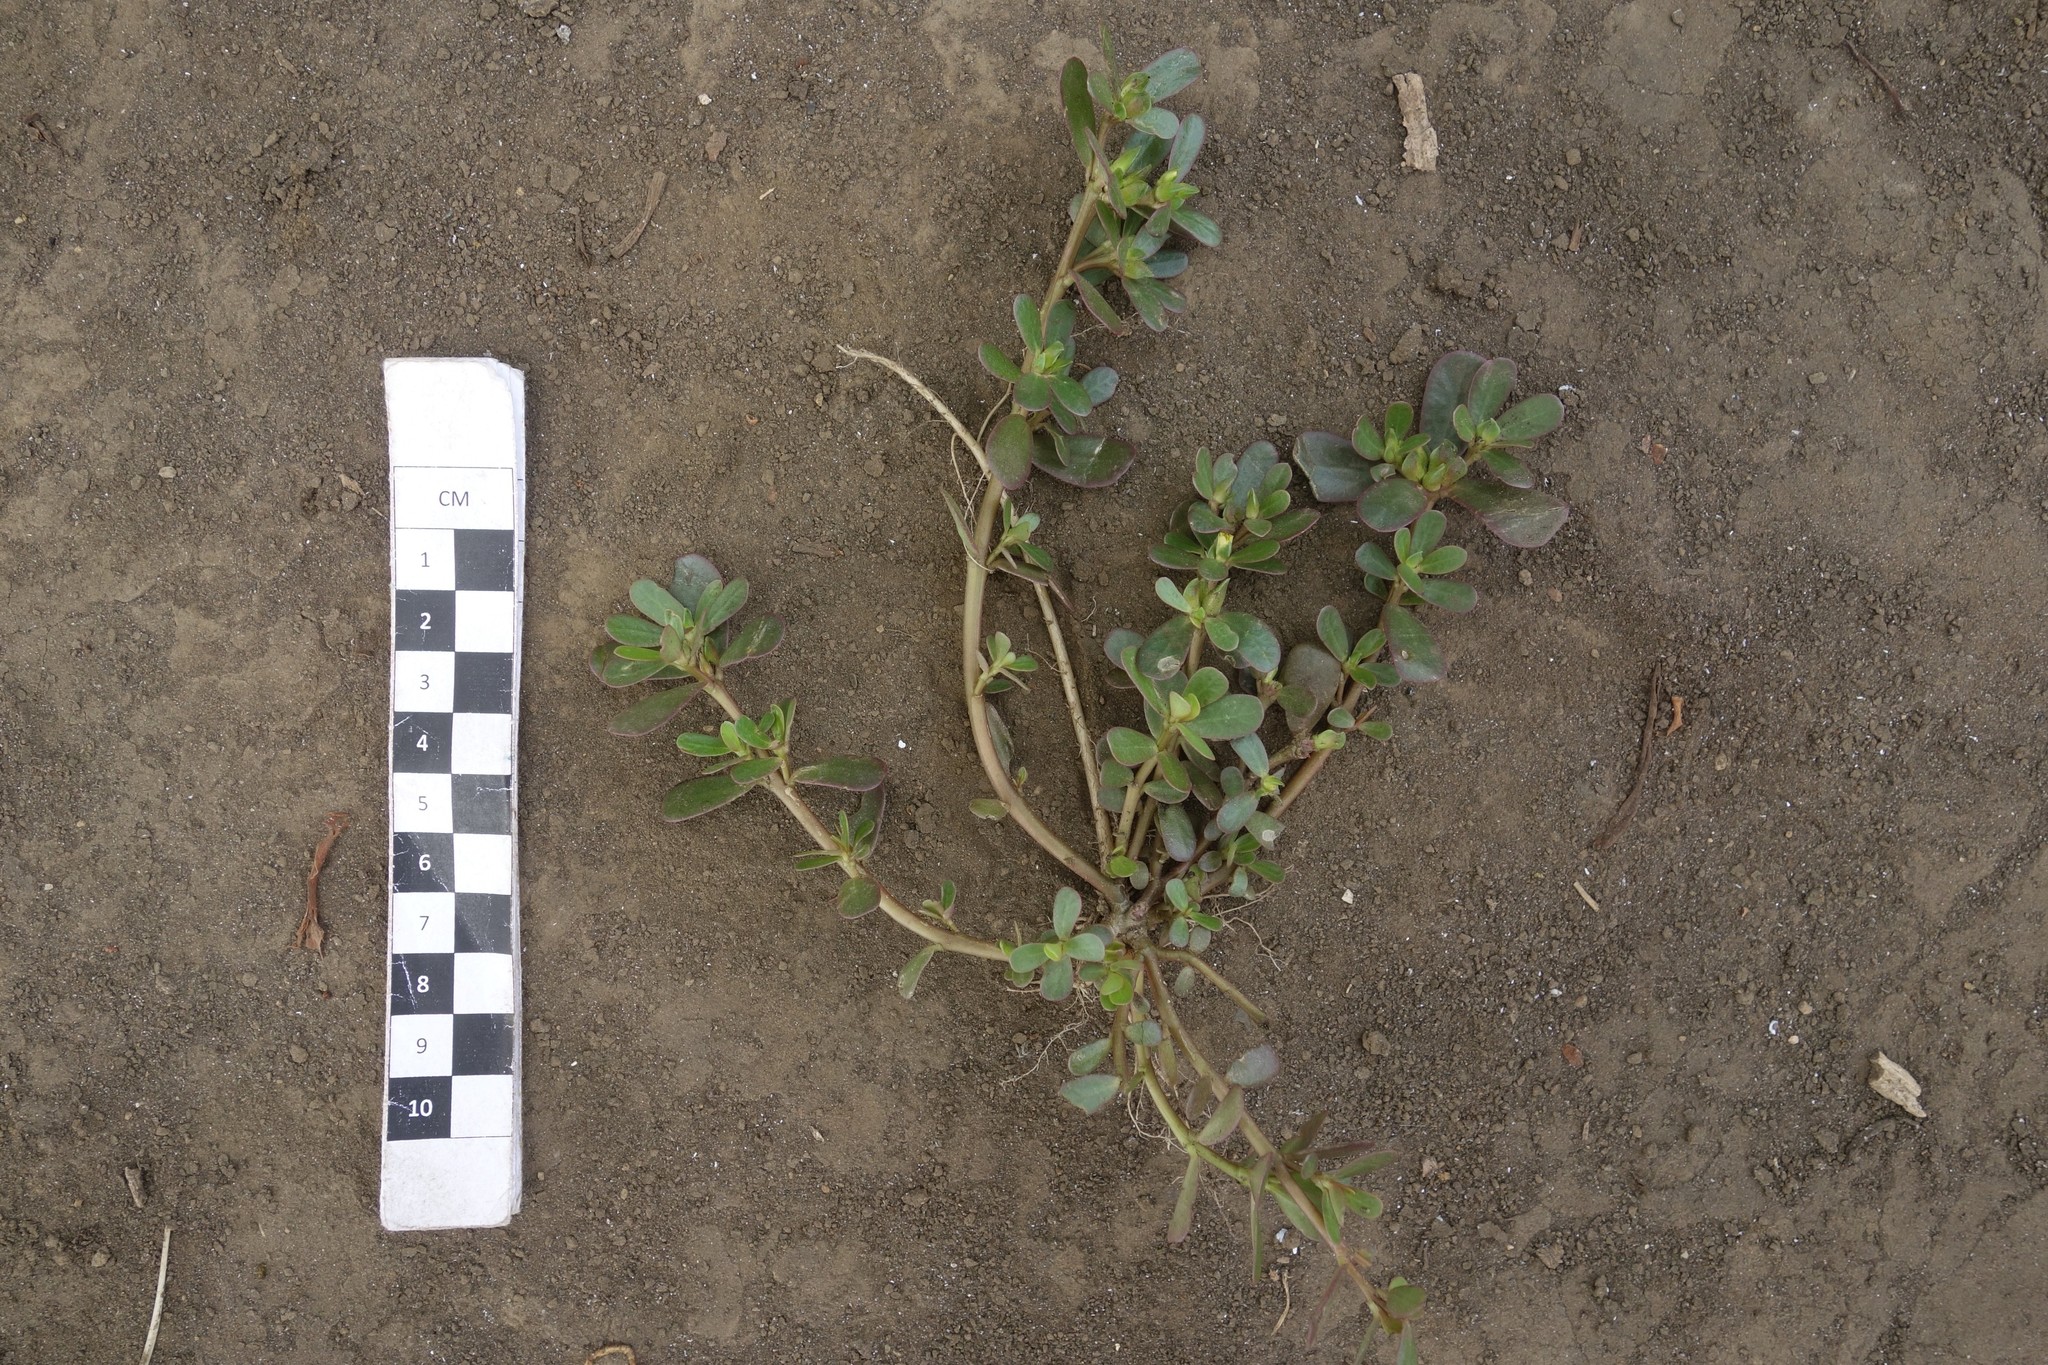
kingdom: Plantae
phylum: Tracheophyta
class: Magnoliopsida
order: Caryophyllales
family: Portulacaceae
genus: Portulaca
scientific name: Portulaca oleracea
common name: Common purslane
